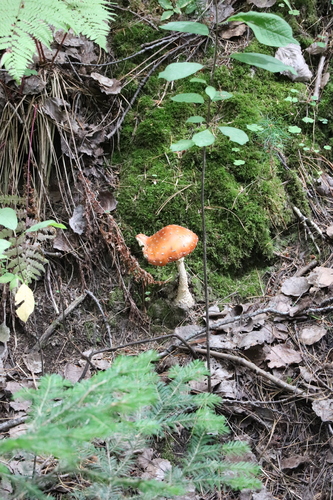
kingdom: Fungi
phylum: Basidiomycota
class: Agaricomycetes
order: Agaricales
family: Amanitaceae
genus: Amanita
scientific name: Amanita muscaria
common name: Fly agaric
